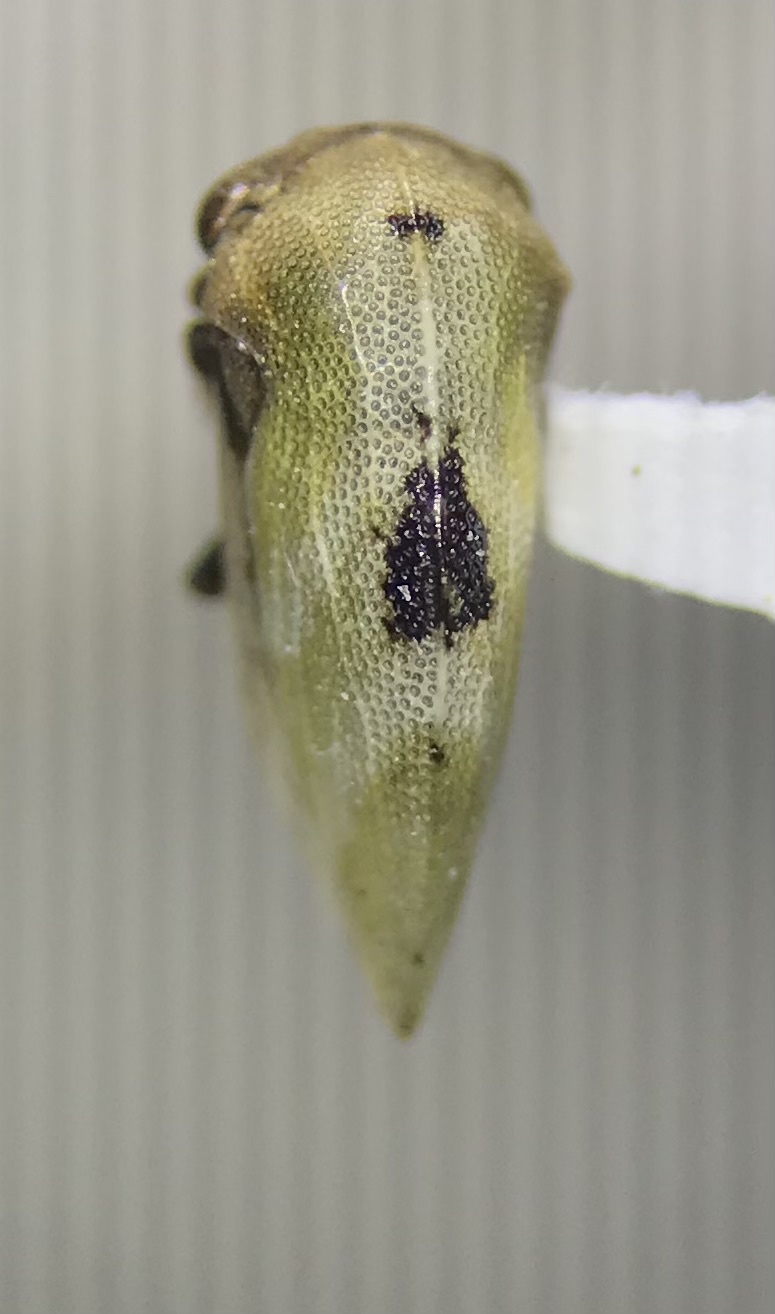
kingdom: Animalia
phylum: Arthropoda
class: Insecta
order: Hemiptera
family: Membracidae
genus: Publilia
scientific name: Publilia modesta
